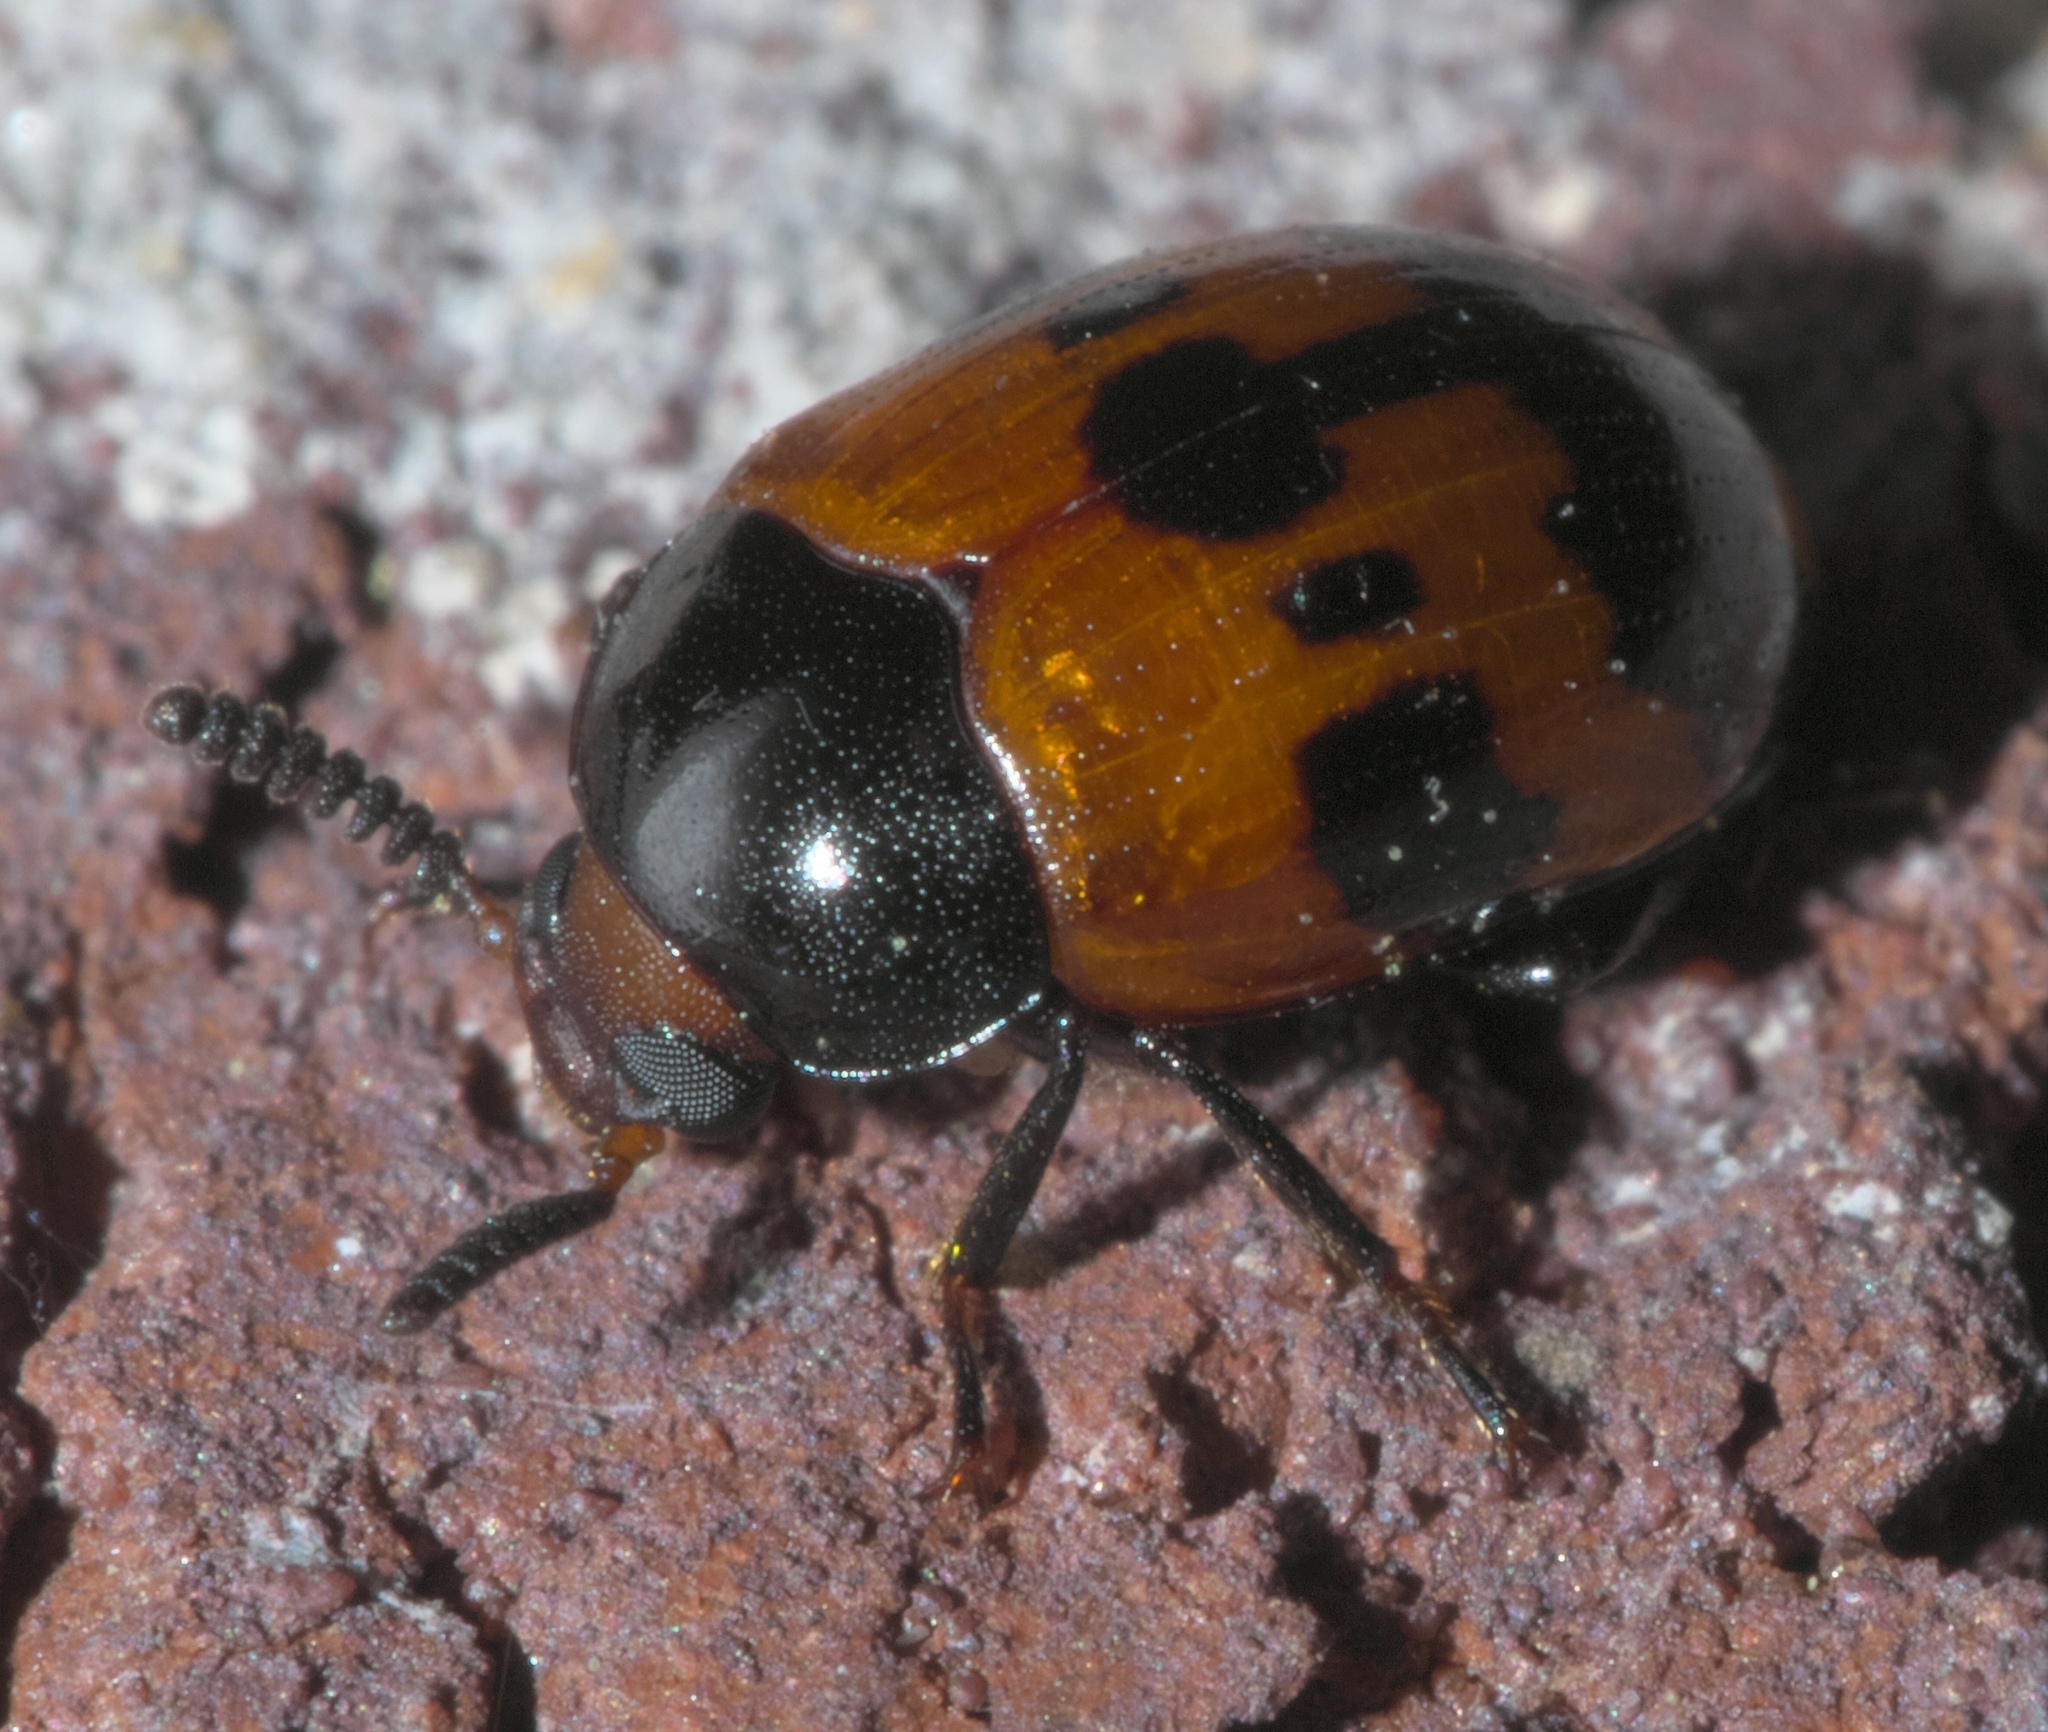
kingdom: Animalia
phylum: Arthropoda
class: Insecta
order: Coleoptera
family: Tenebrionidae
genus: Diaperis
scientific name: Diaperis nigronotata
